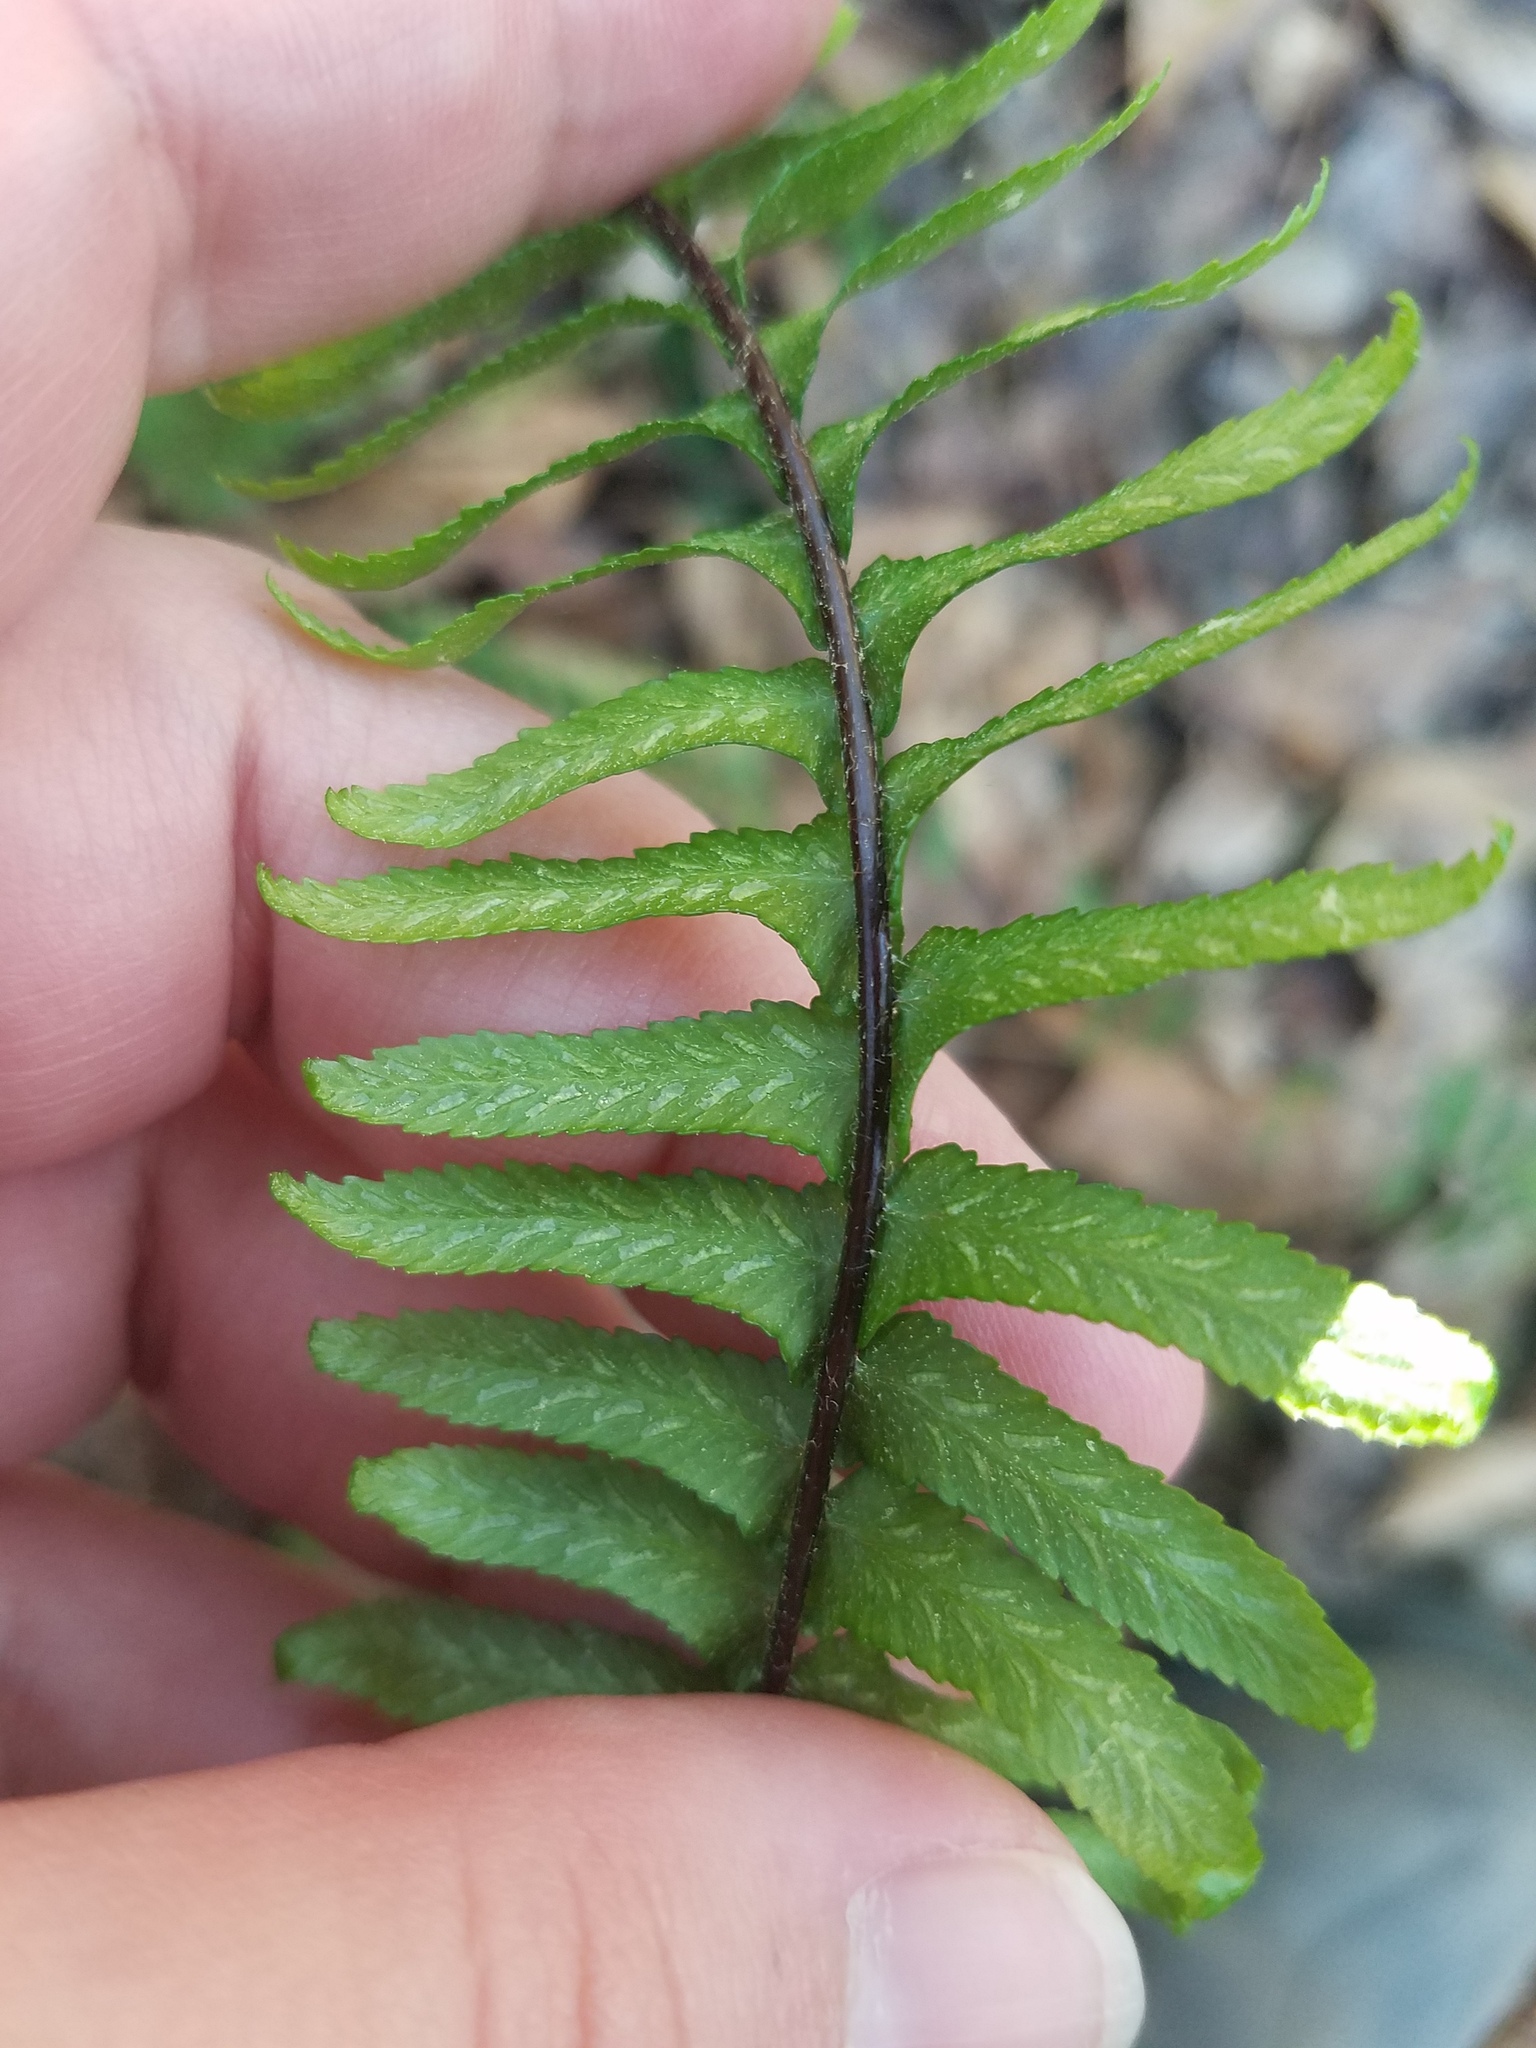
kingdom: Plantae
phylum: Tracheophyta
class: Polypodiopsida
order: Polypodiales
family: Aspleniaceae
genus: Asplenium
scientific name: Asplenium platyneuron
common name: Ebony spleenwort
